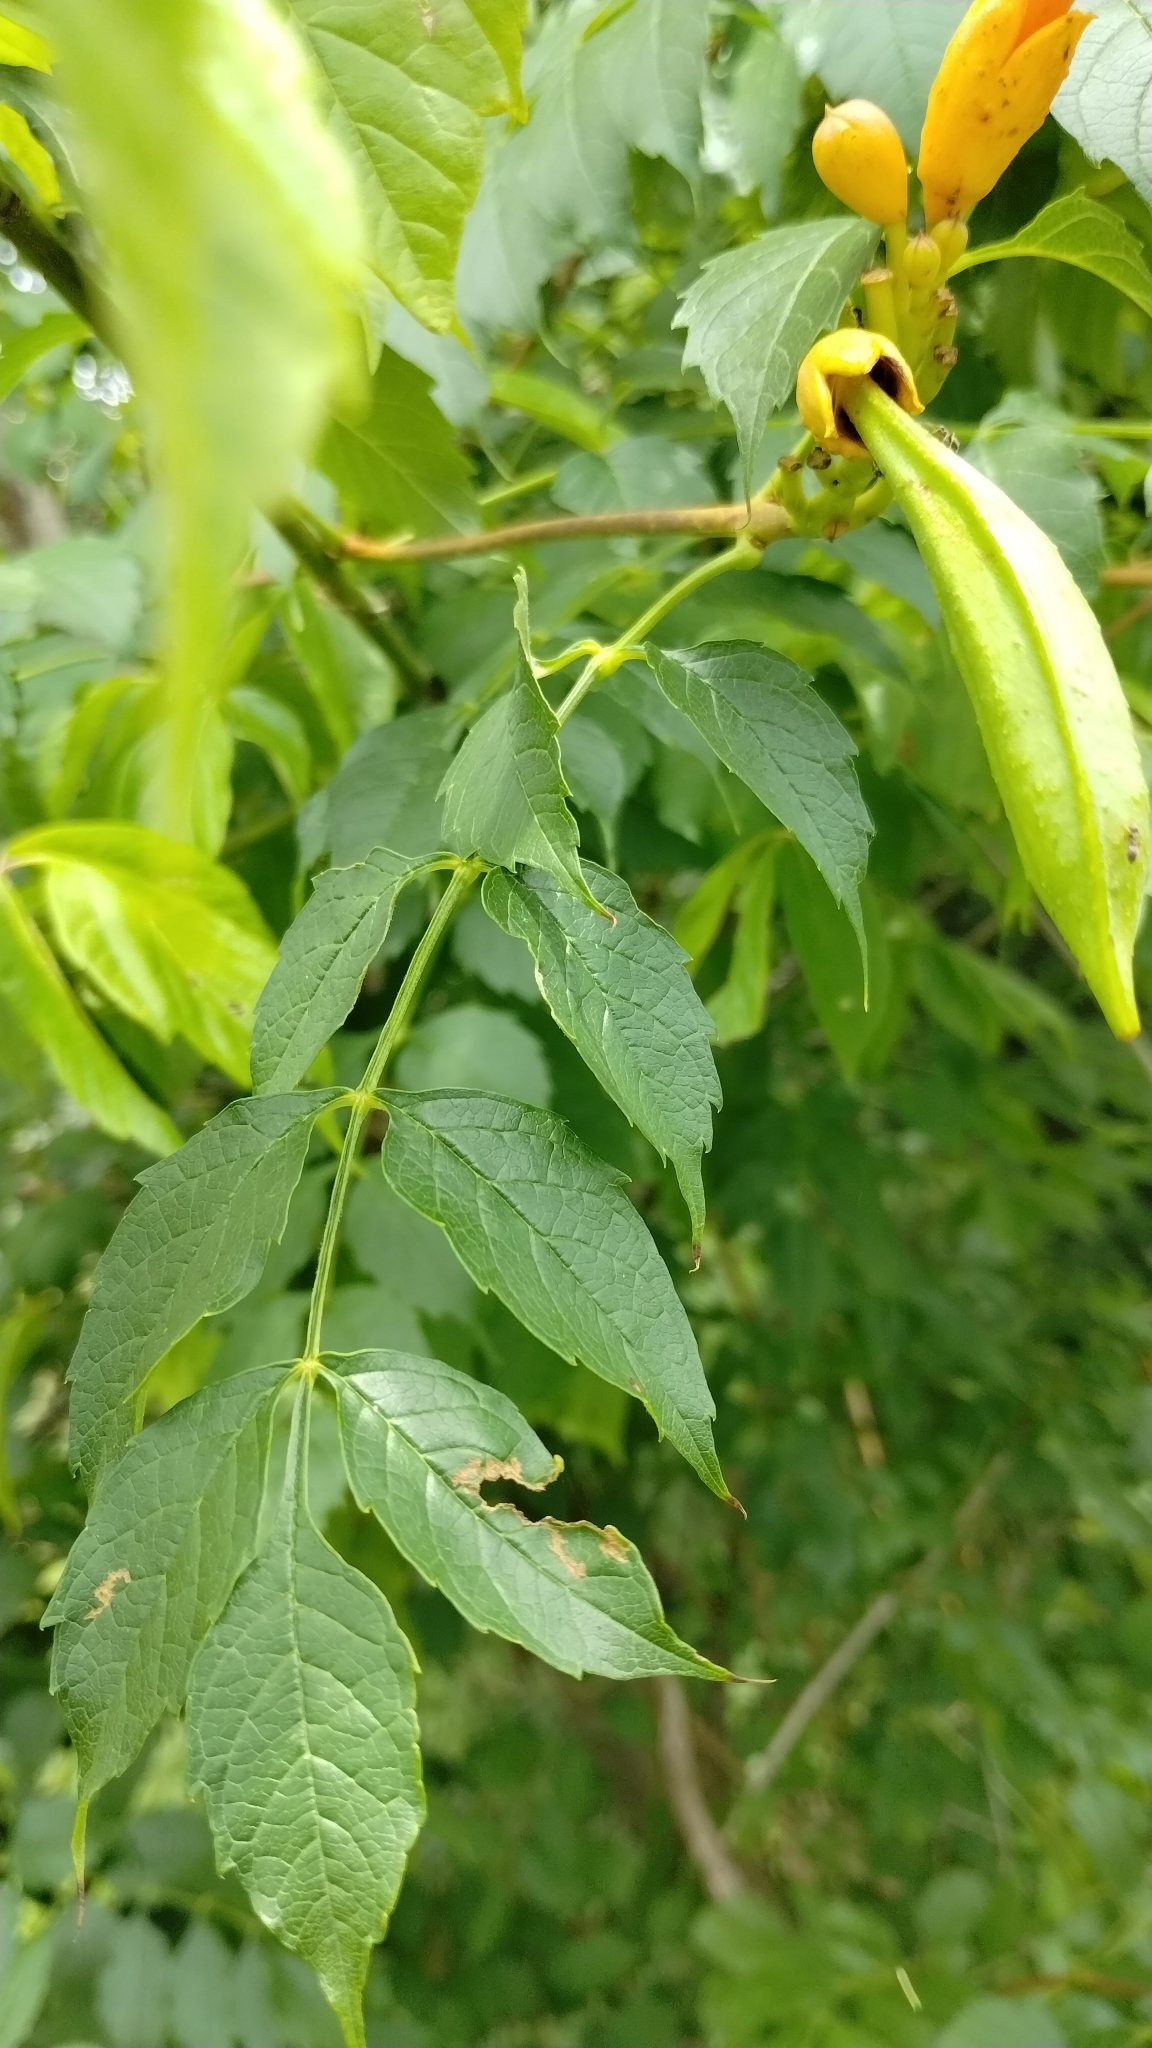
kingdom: Plantae
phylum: Tracheophyta
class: Magnoliopsida
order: Lamiales
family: Bignoniaceae
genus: Campsis
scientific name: Campsis radicans
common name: Trumpet-creeper
